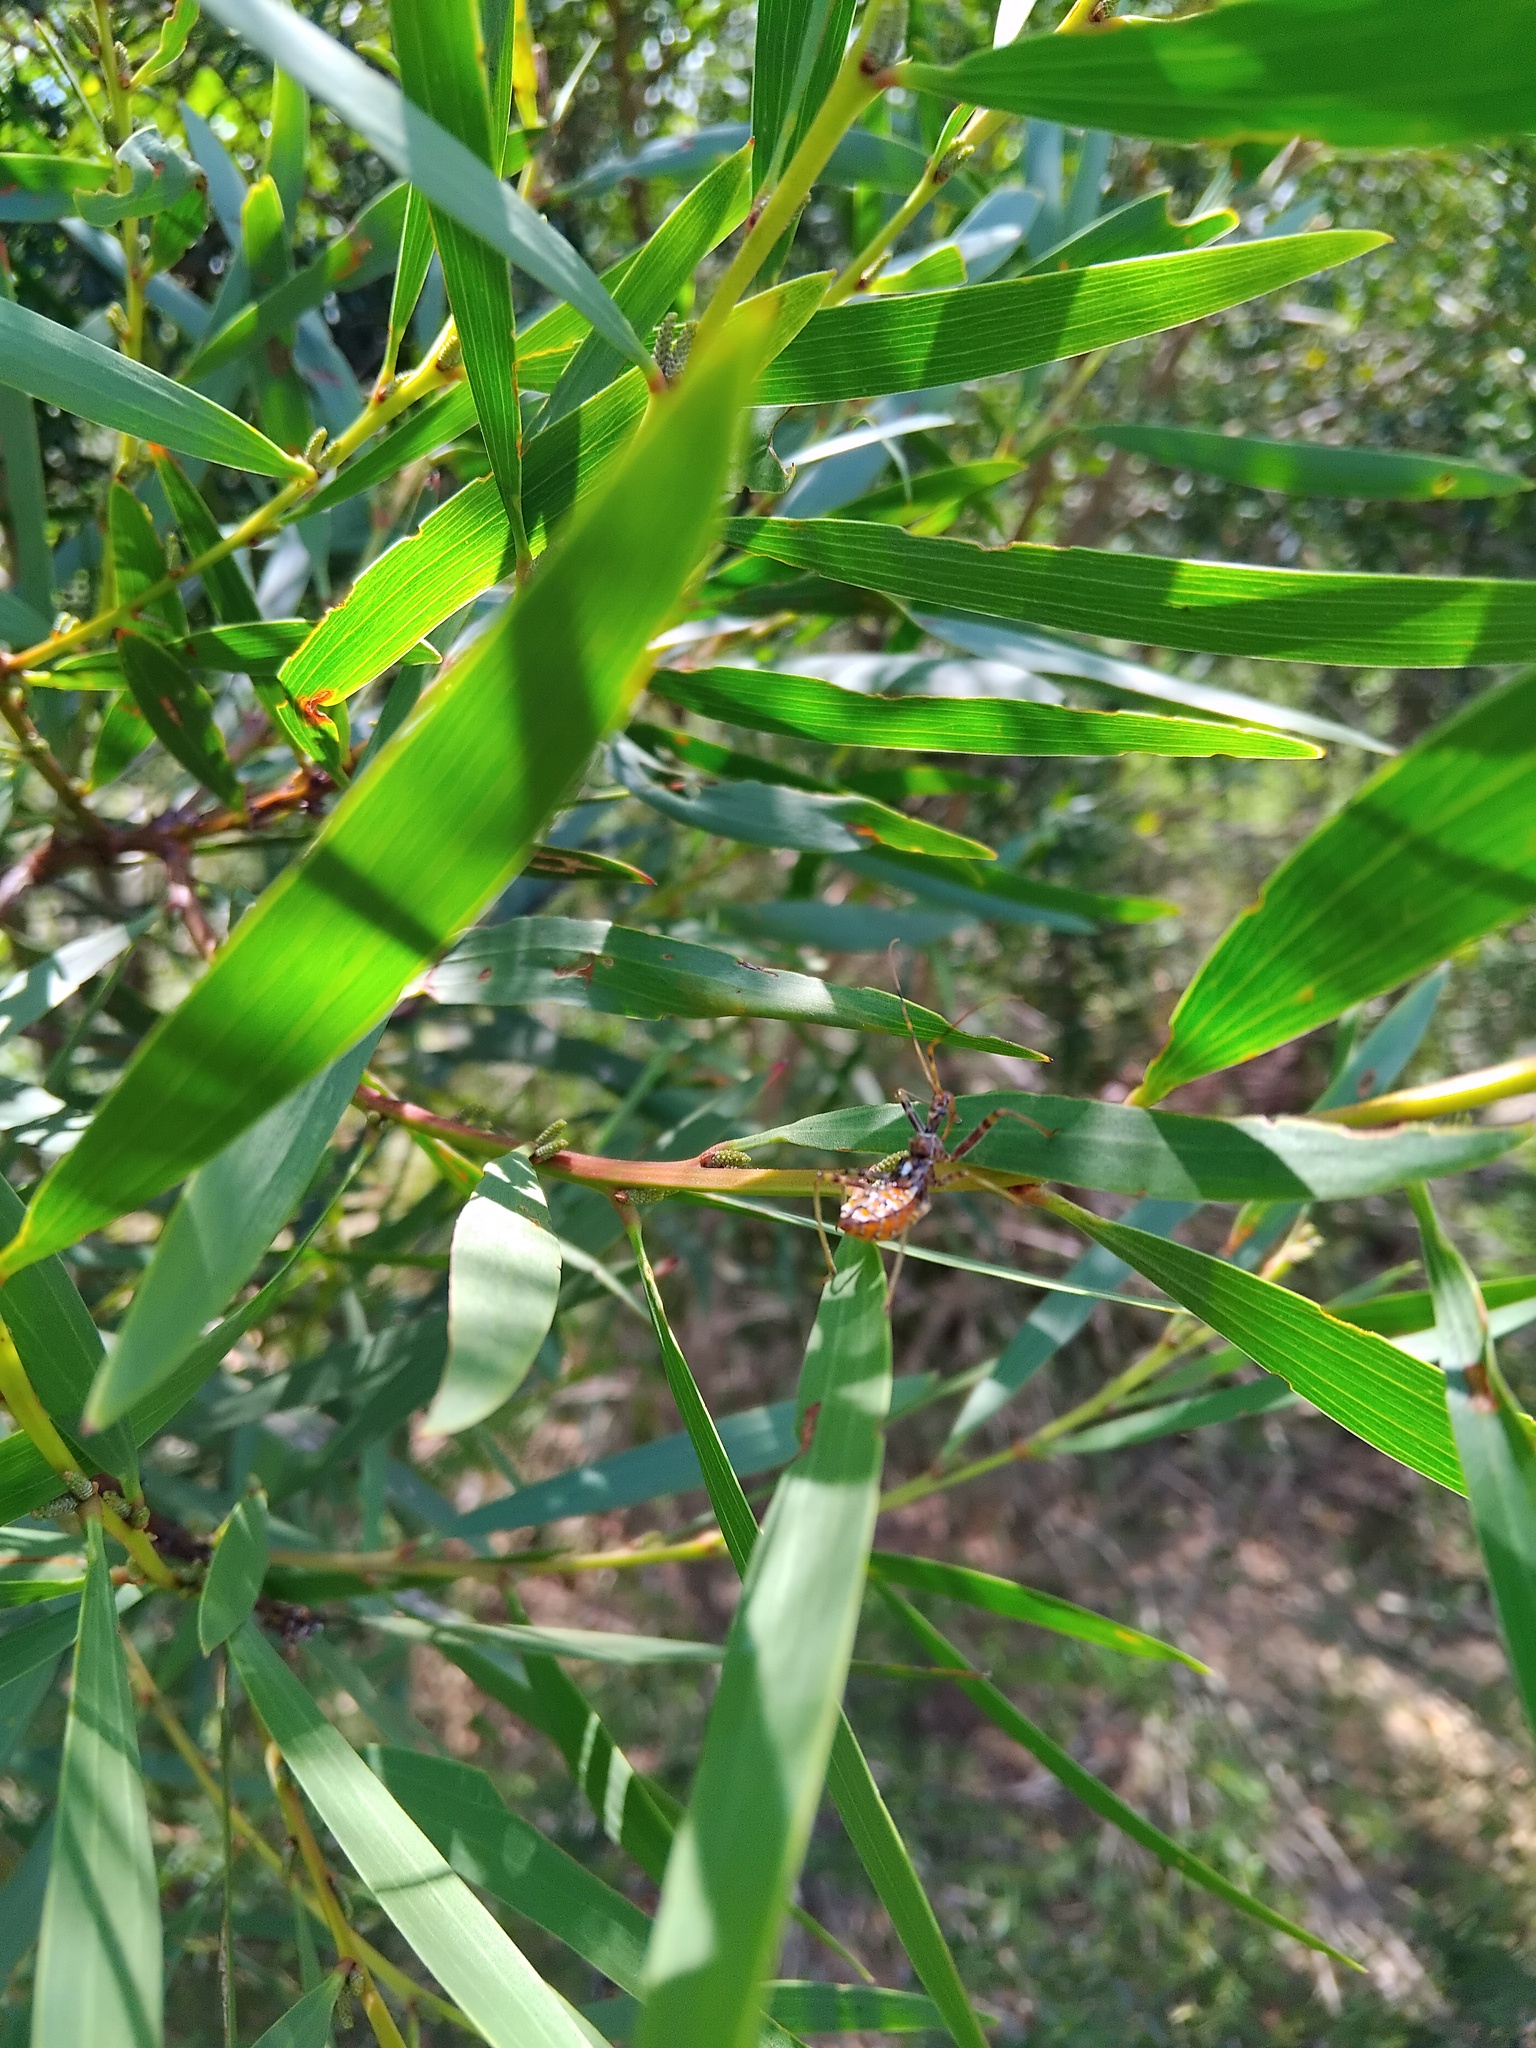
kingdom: Animalia
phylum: Arthropoda
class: Insecta
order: Hemiptera
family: Reduviidae
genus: Pristhesancus
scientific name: Pristhesancus plagipennis
